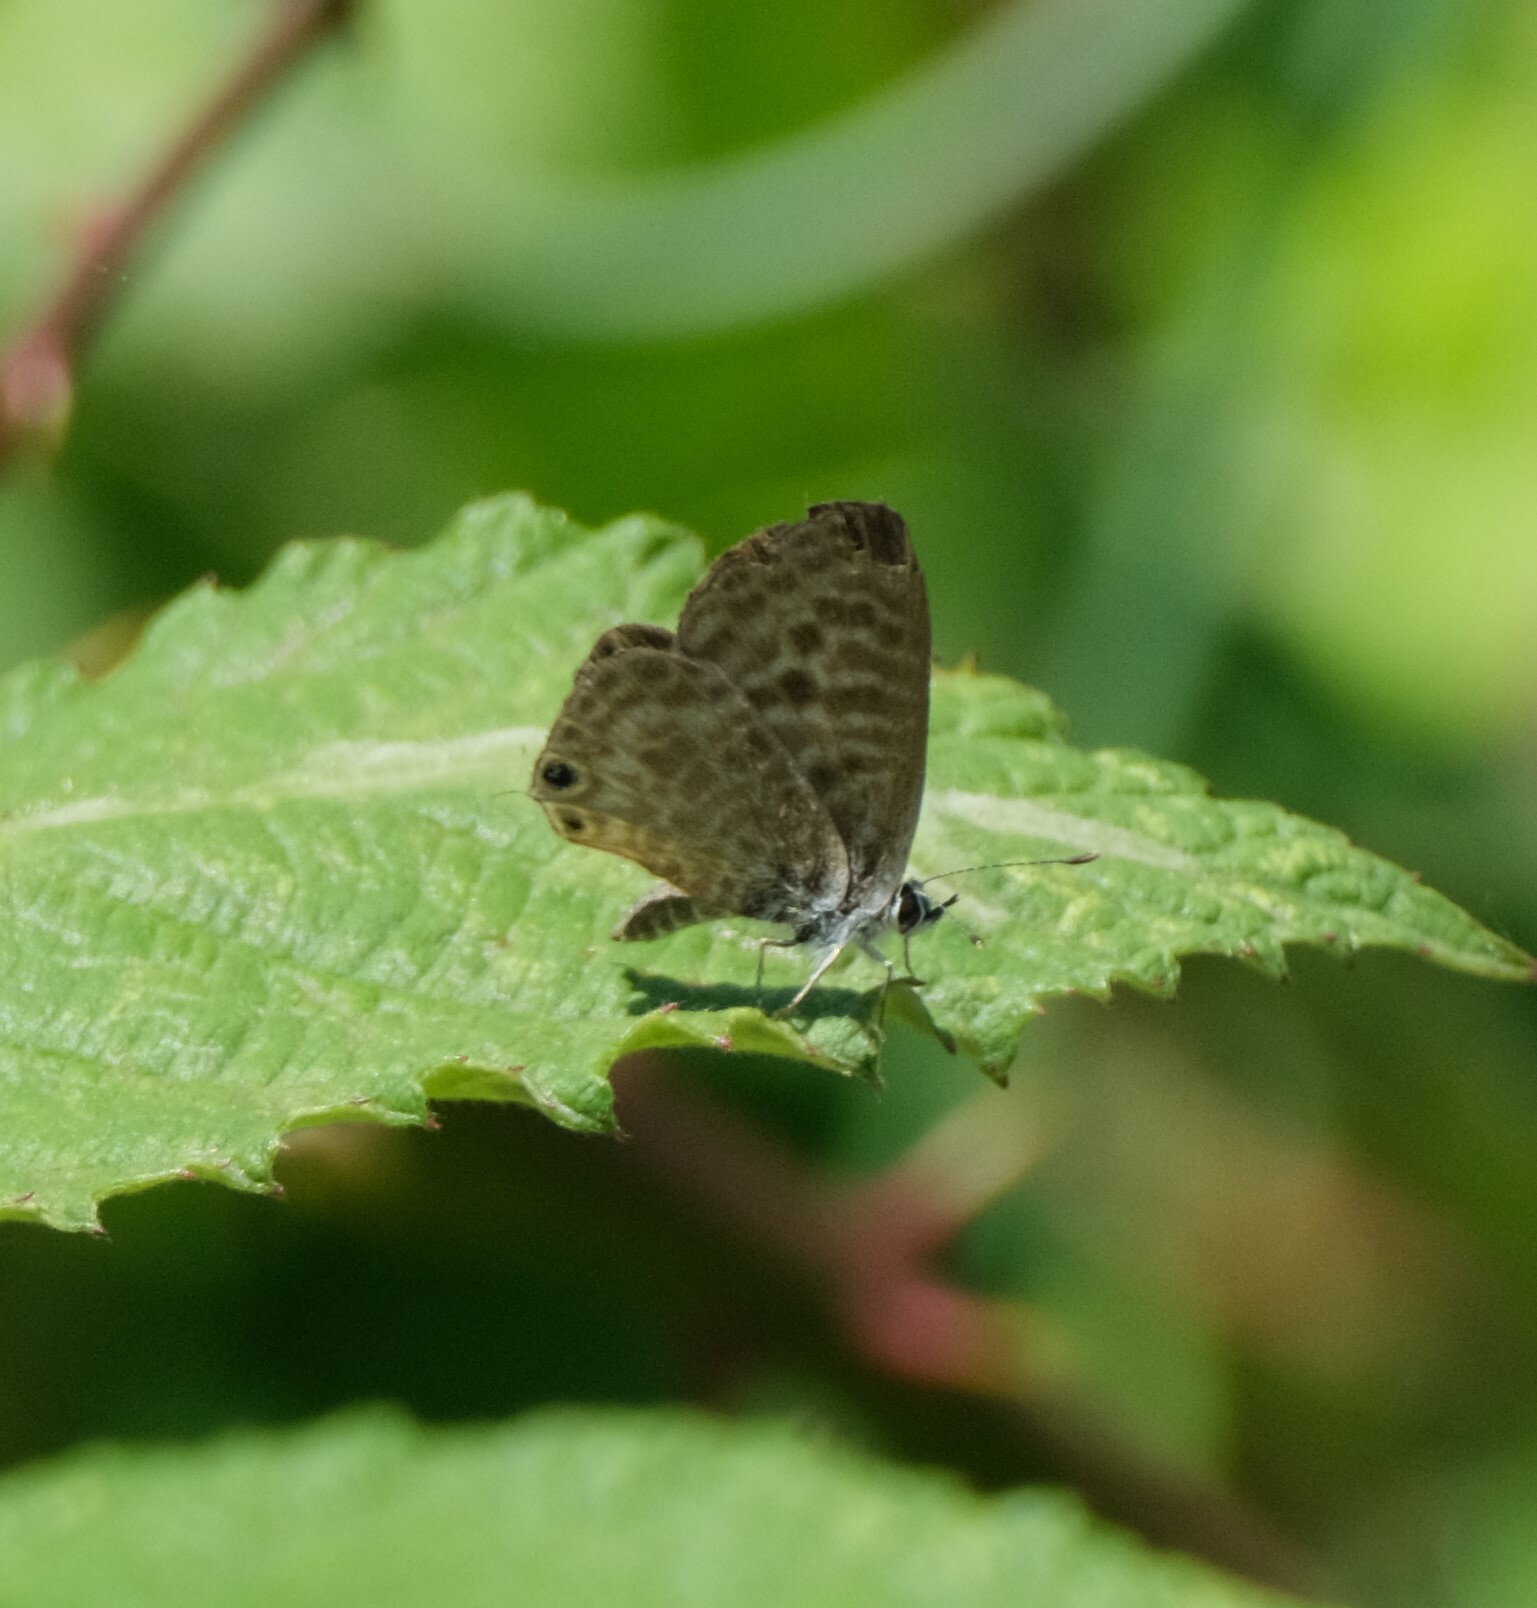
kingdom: Animalia
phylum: Arthropoda
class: Insecta
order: Lepidoptera
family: Lycaenidae
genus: Leptotes
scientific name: Leptotes pirithous
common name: Lang's short-tailed blue
